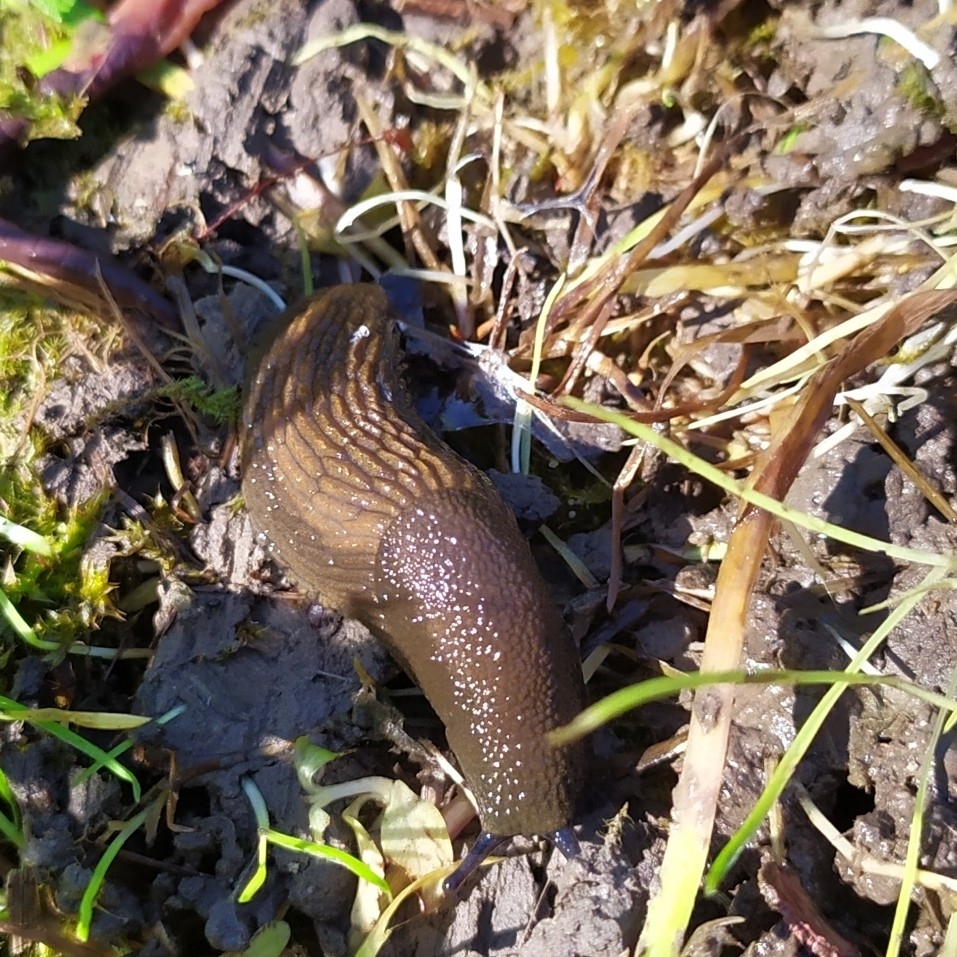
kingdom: Animalia
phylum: Mollusca
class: Gastropoda
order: Stylommatophora
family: Arionidae
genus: Arion
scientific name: Arion vulgaris
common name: Lusitanian slug
